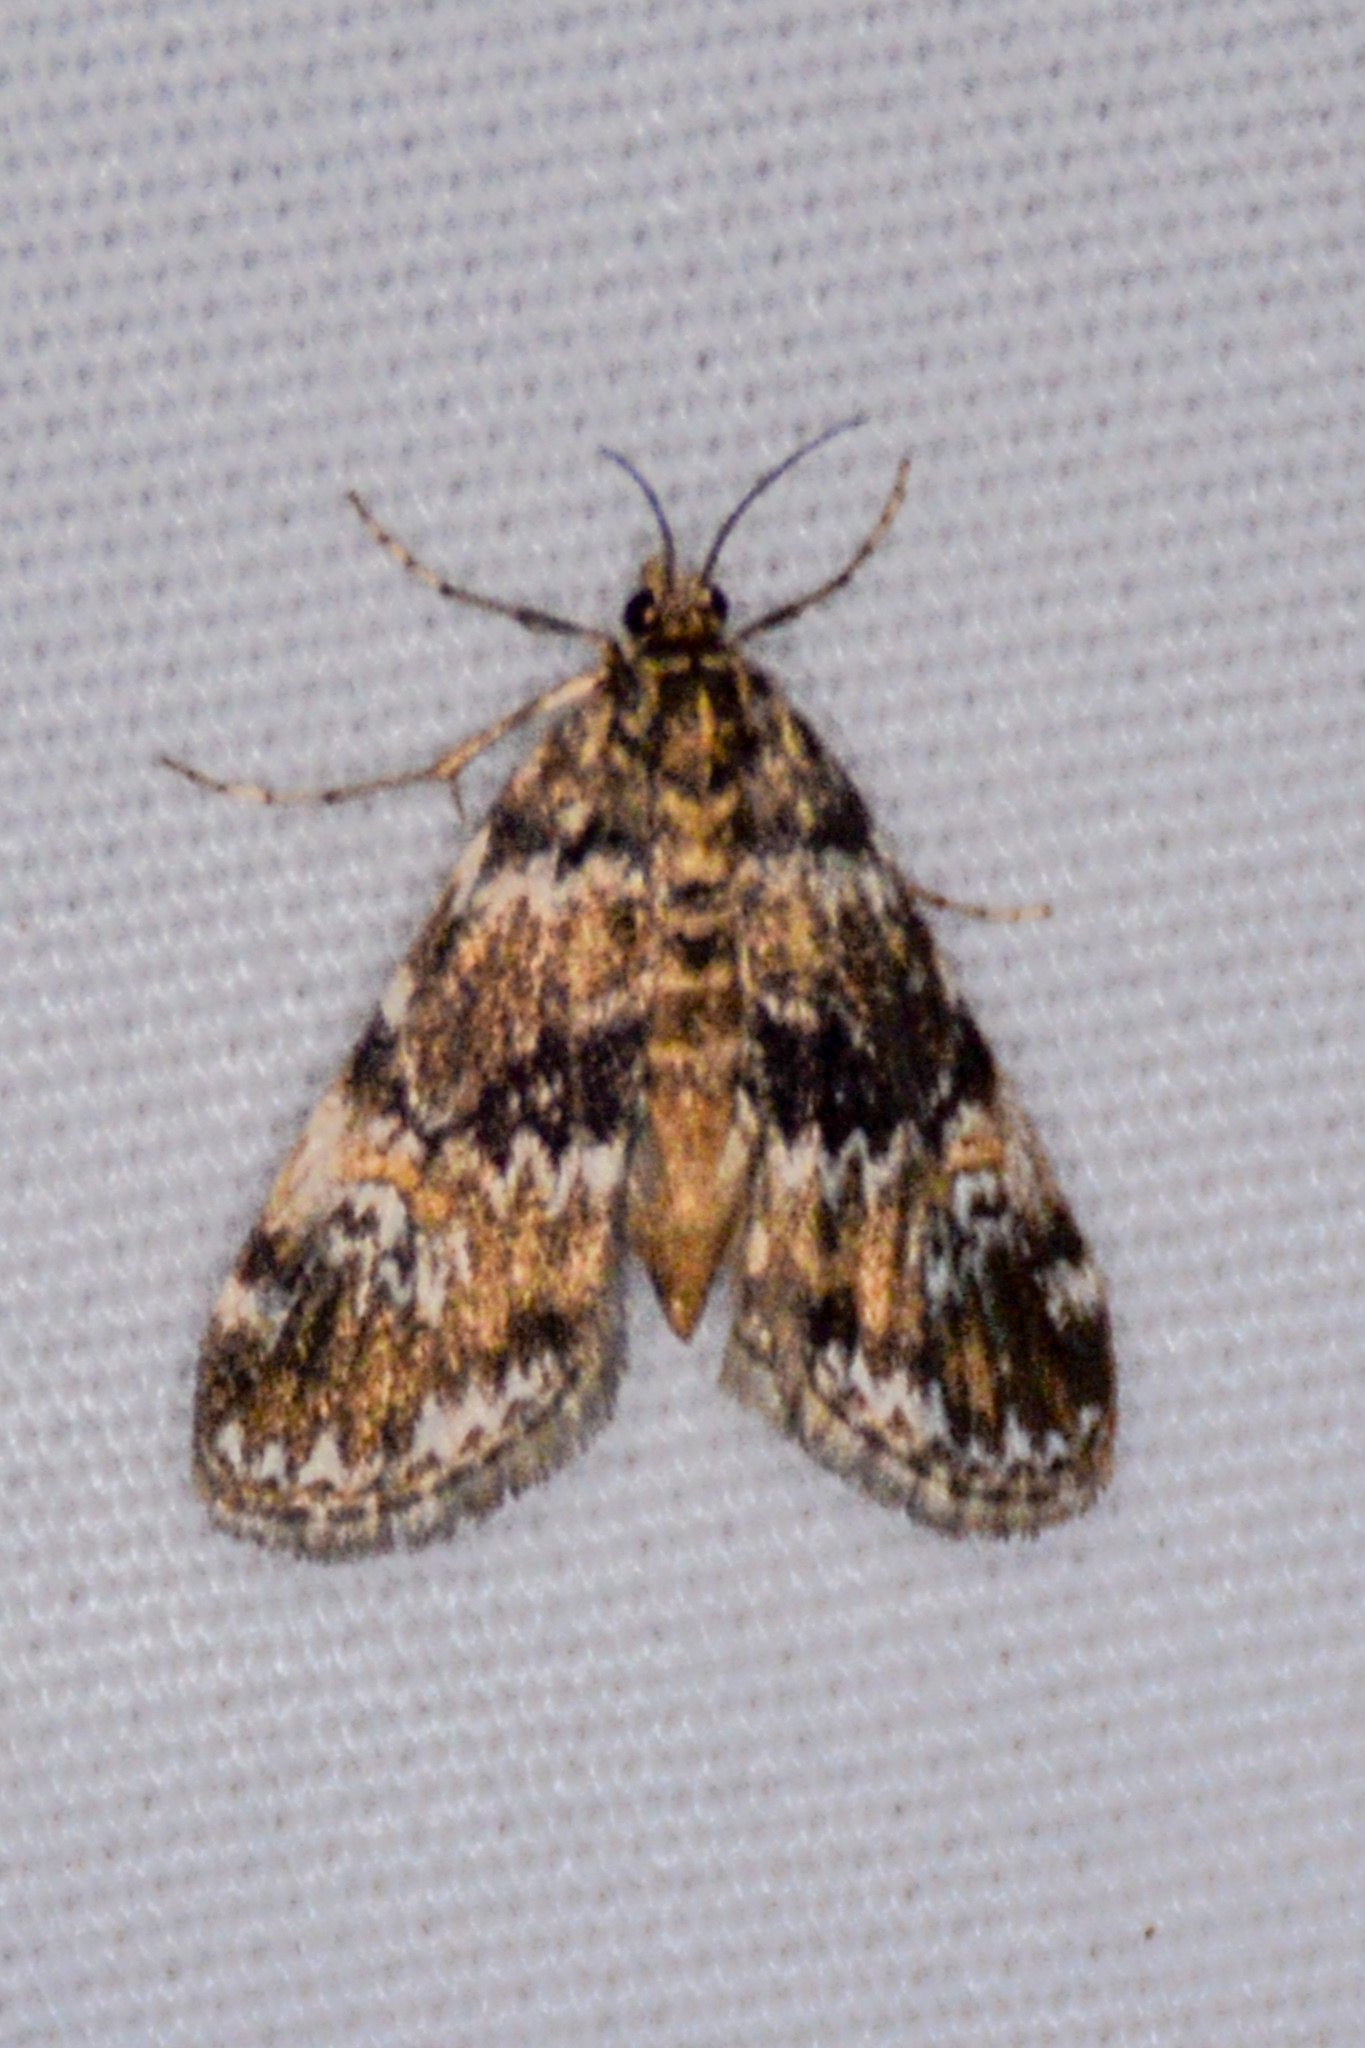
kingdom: Animalia
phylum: Arthropoda
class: Insecta
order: Lepidoptera
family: Crambidae
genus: Elophila
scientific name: Elophila obliteralis
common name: Waterlily leafcutter moth
